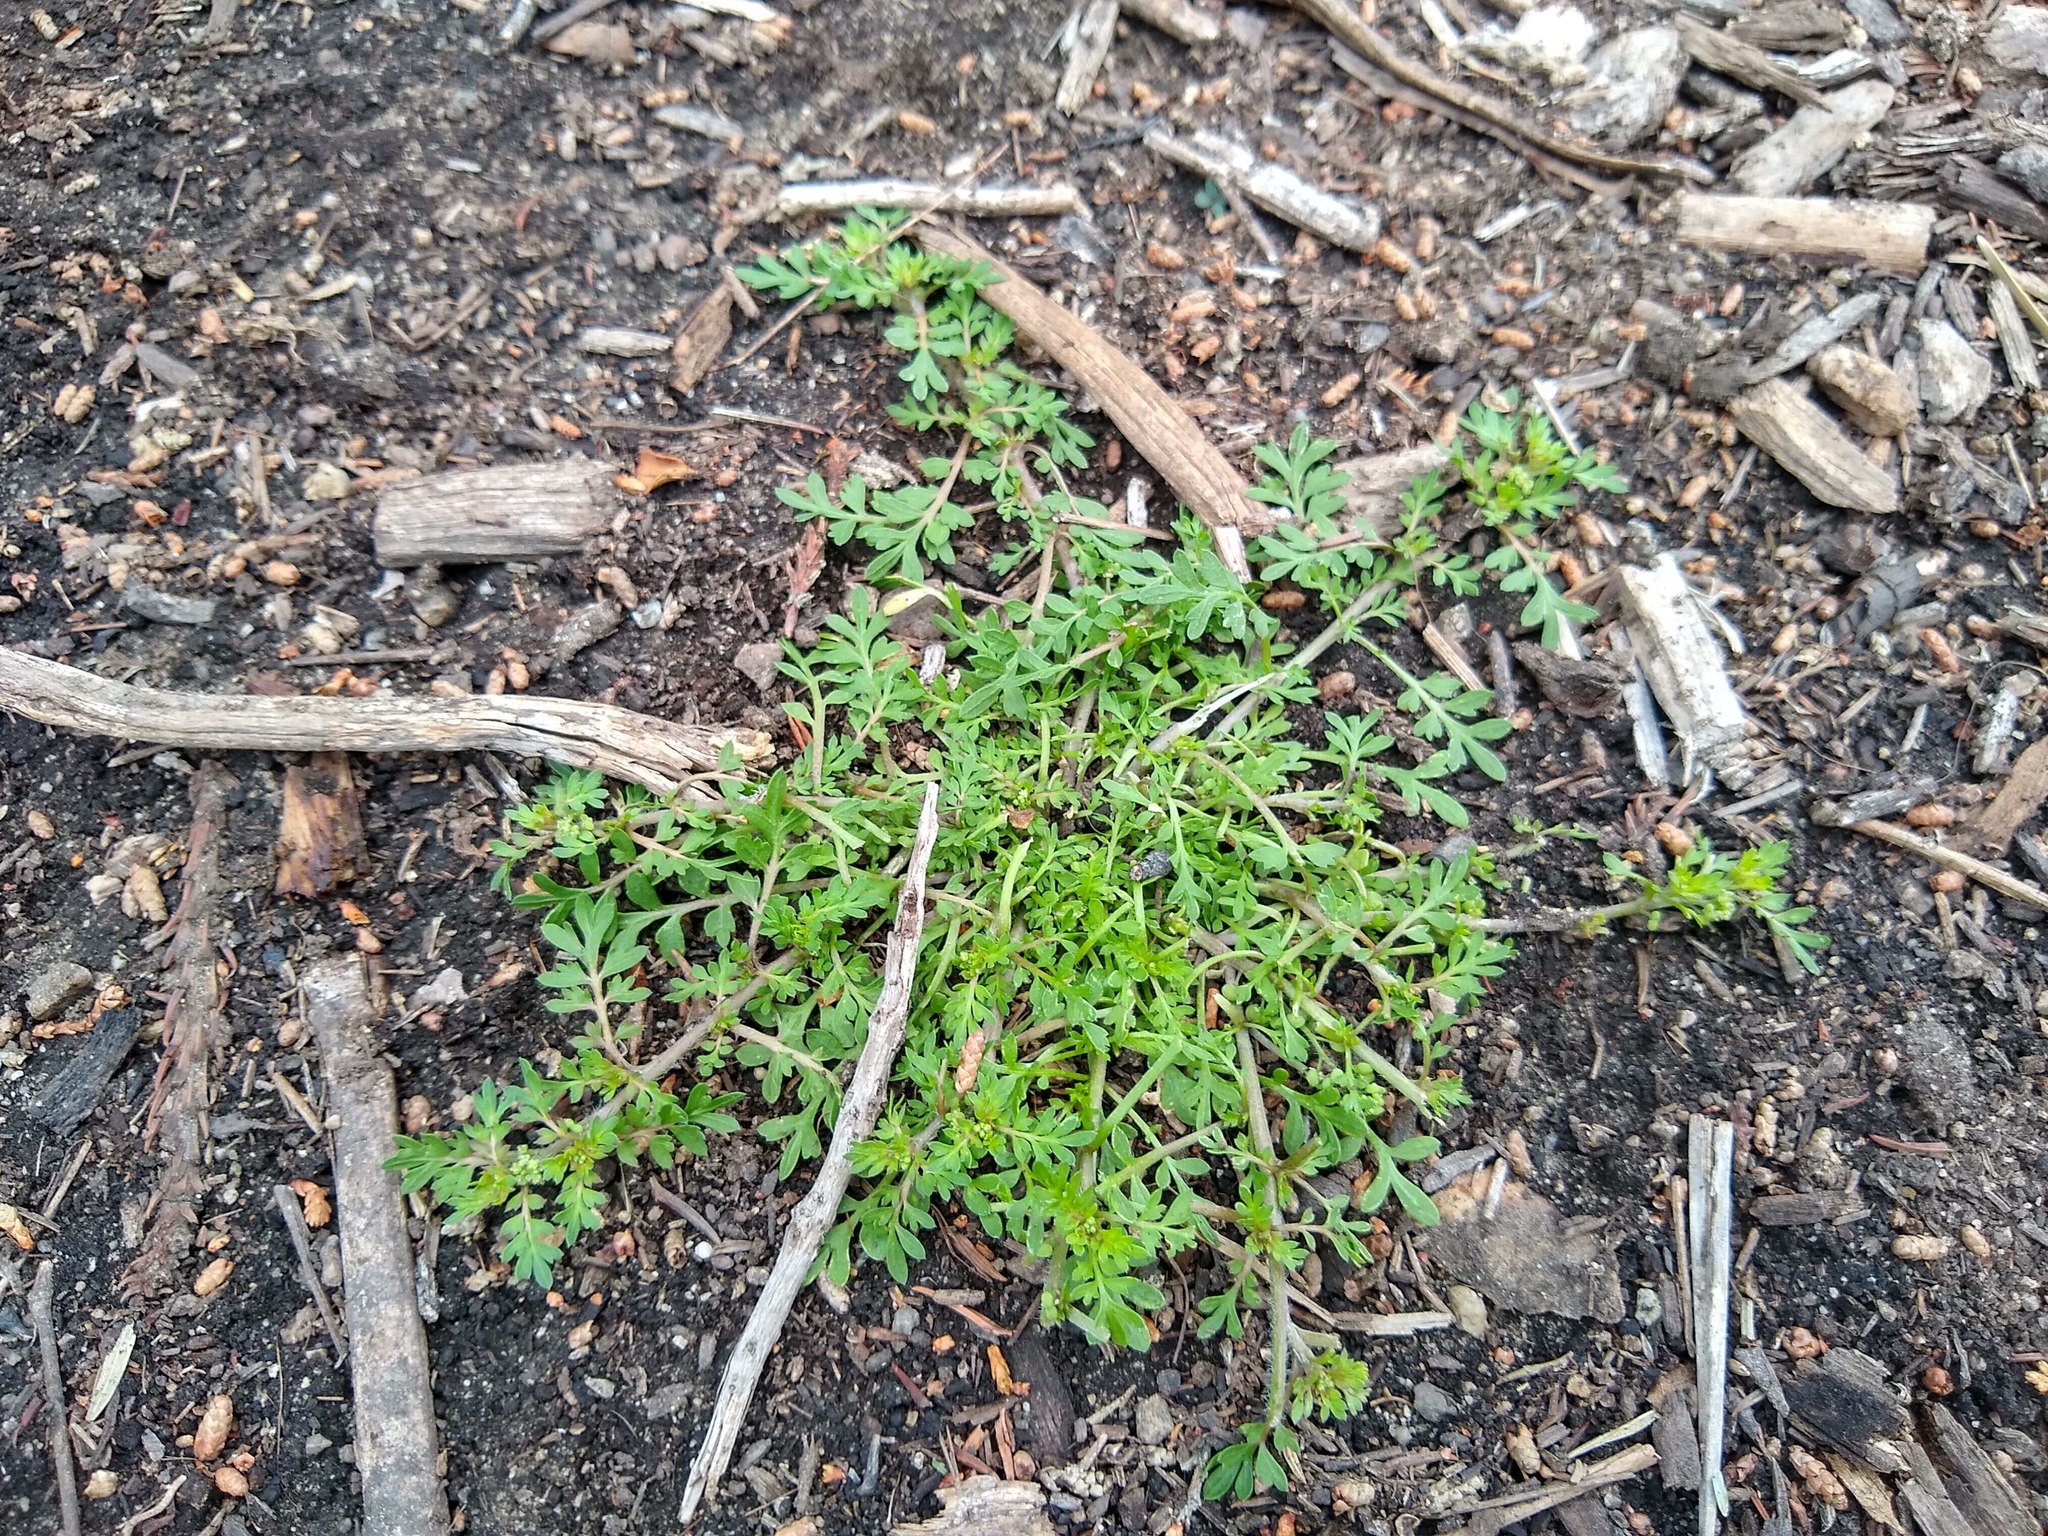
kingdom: Plantae
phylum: Tracheophyta
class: Magnoliopsida
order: Asterales
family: Asteraceae
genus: Cotula
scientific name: Cotula australis
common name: Australian waterbuttons
